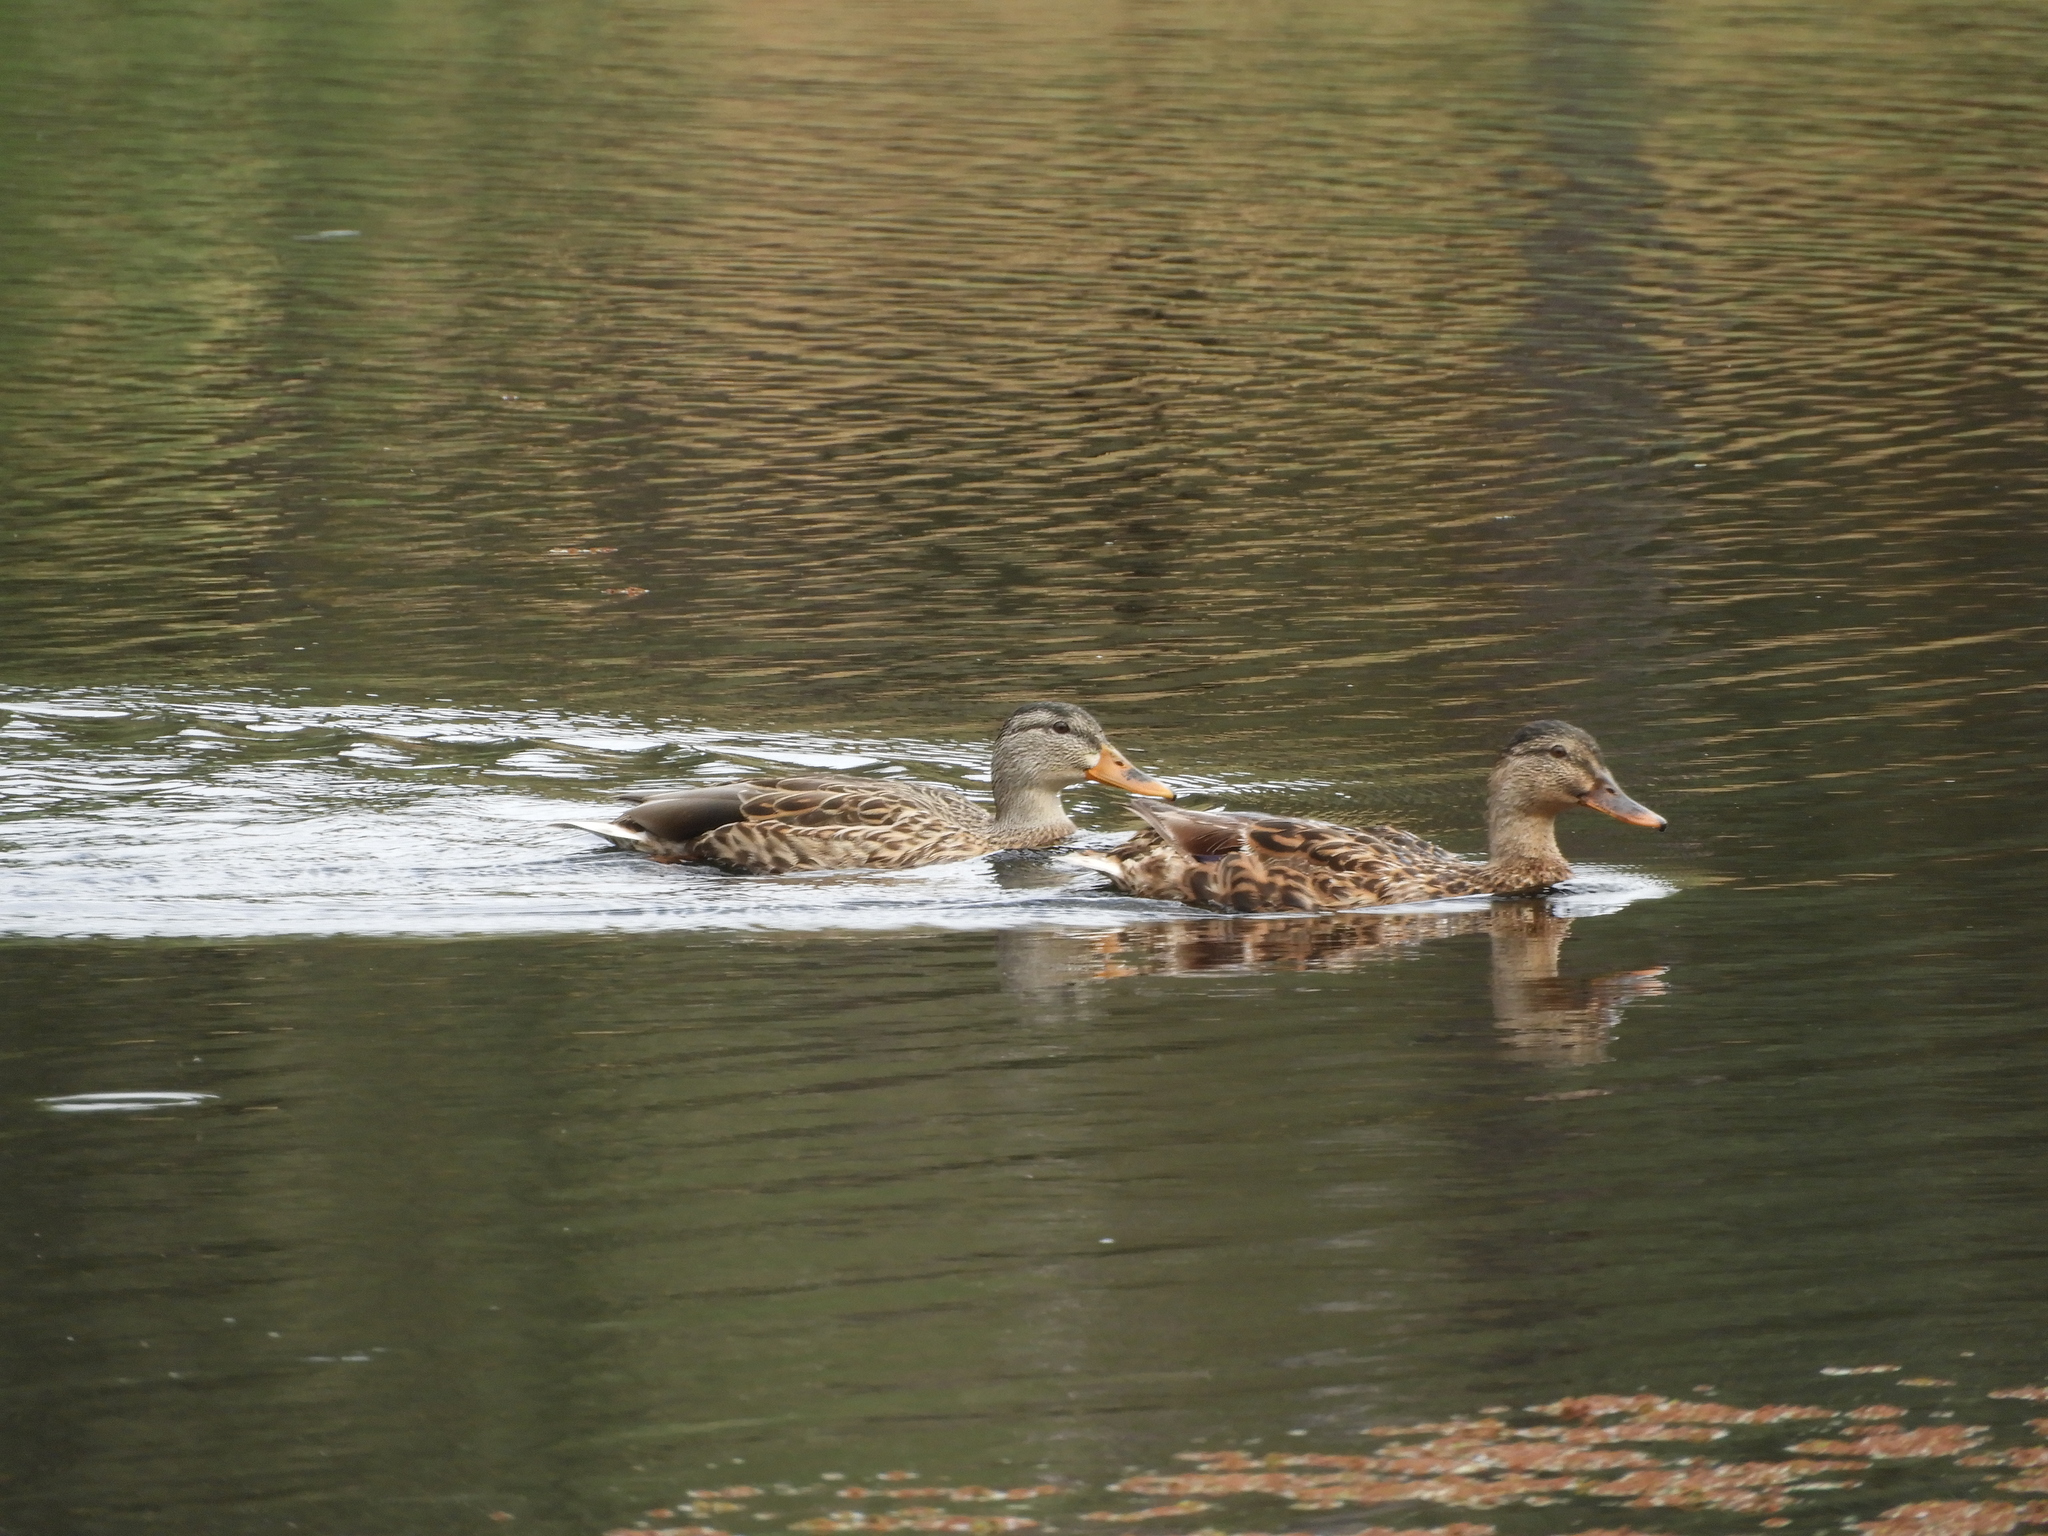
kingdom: Animalia
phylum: Chordata
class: Aves
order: Anseriformes
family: Anatidae
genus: Anas
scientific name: Anas platyrhynchos
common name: Mallard
